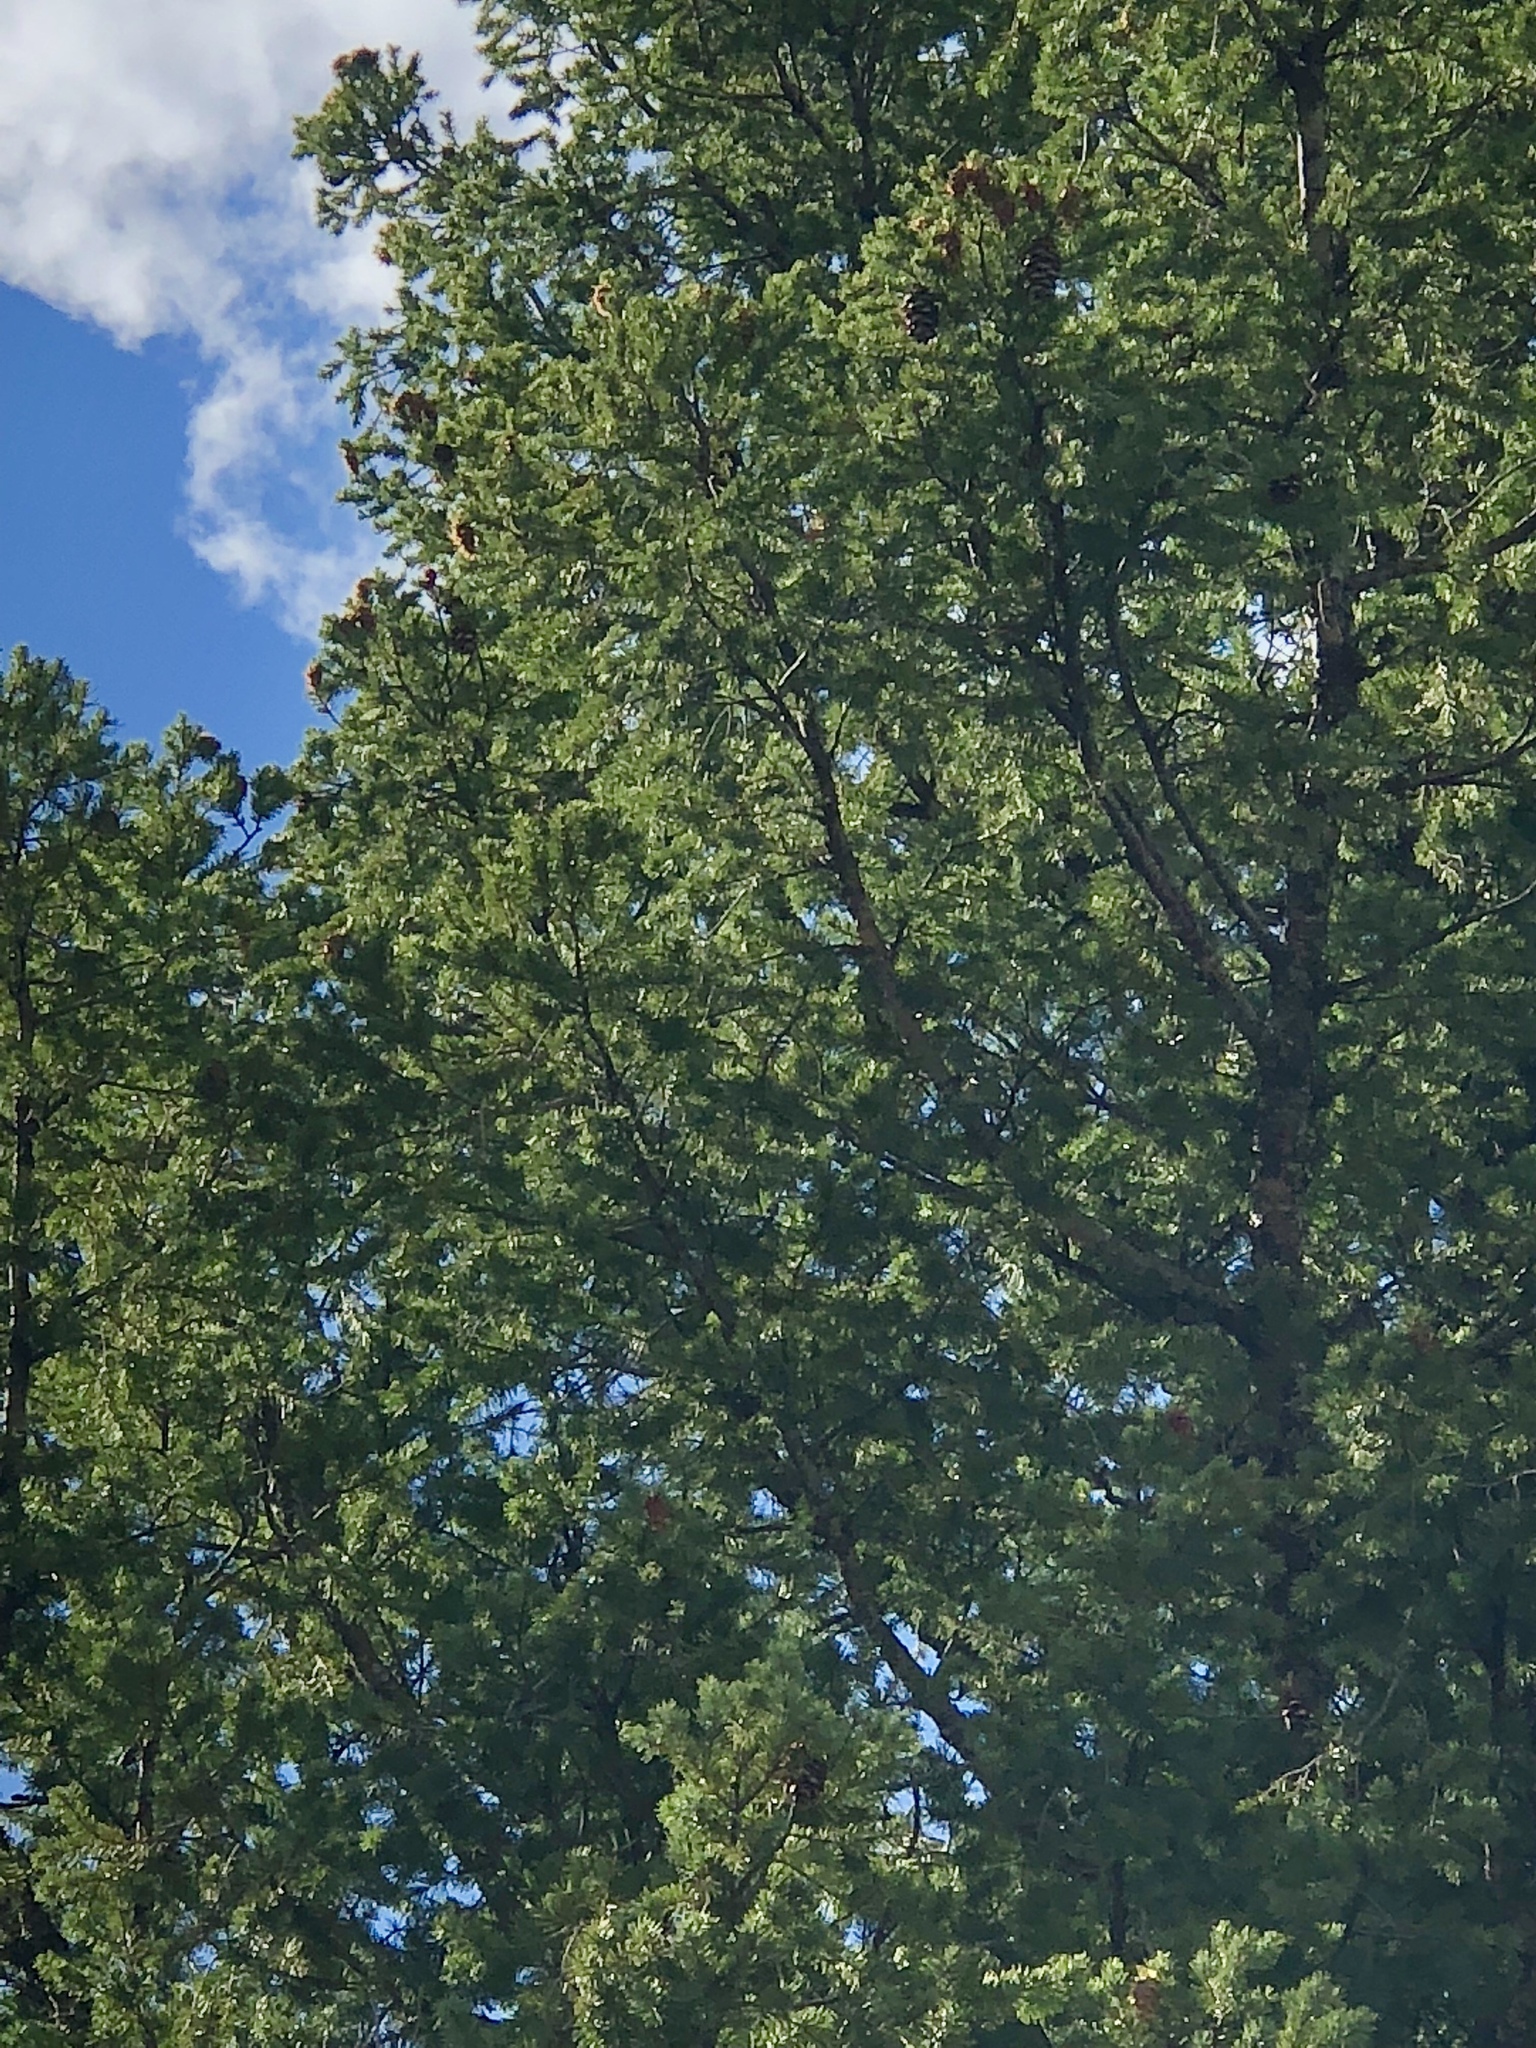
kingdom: Plantae
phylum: Tracheophyta
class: Pinopsida
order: Pinales
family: Pinaceae
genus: Pseudotsuga
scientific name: Pseudotsuga menziesii
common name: Douglas fir
